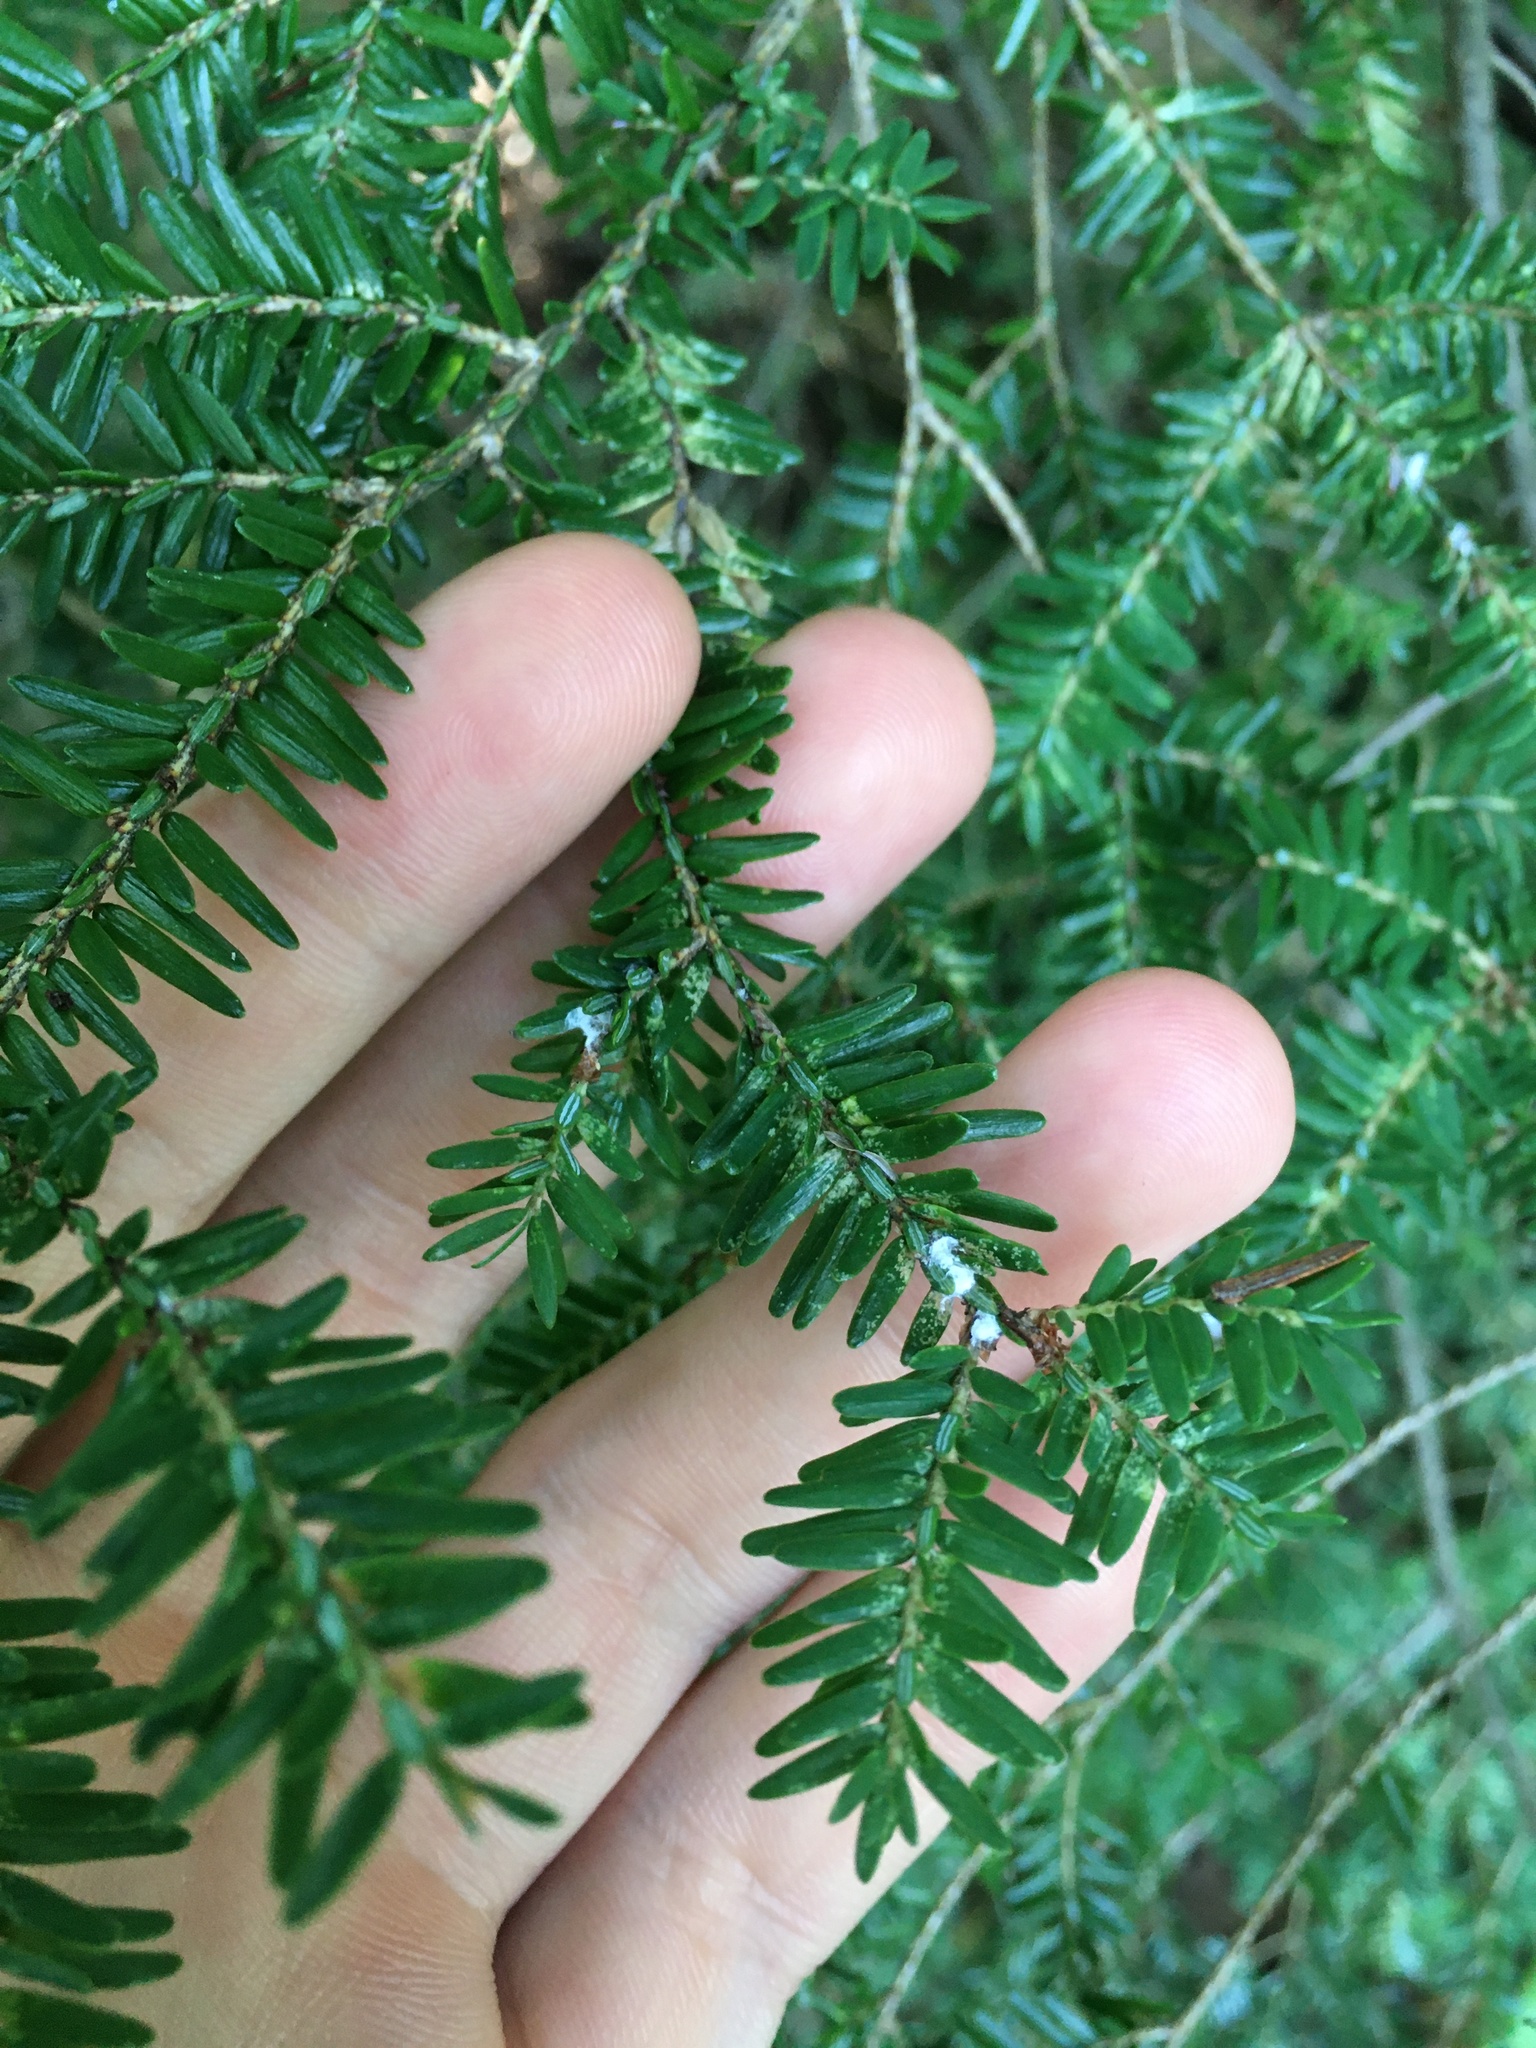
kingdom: Animalia
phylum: Arthropoda
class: Insecta
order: Hemiptera
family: Adelgidae
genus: Adelges
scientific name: Adelges tsugae
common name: Hemlock woolly adelgid
